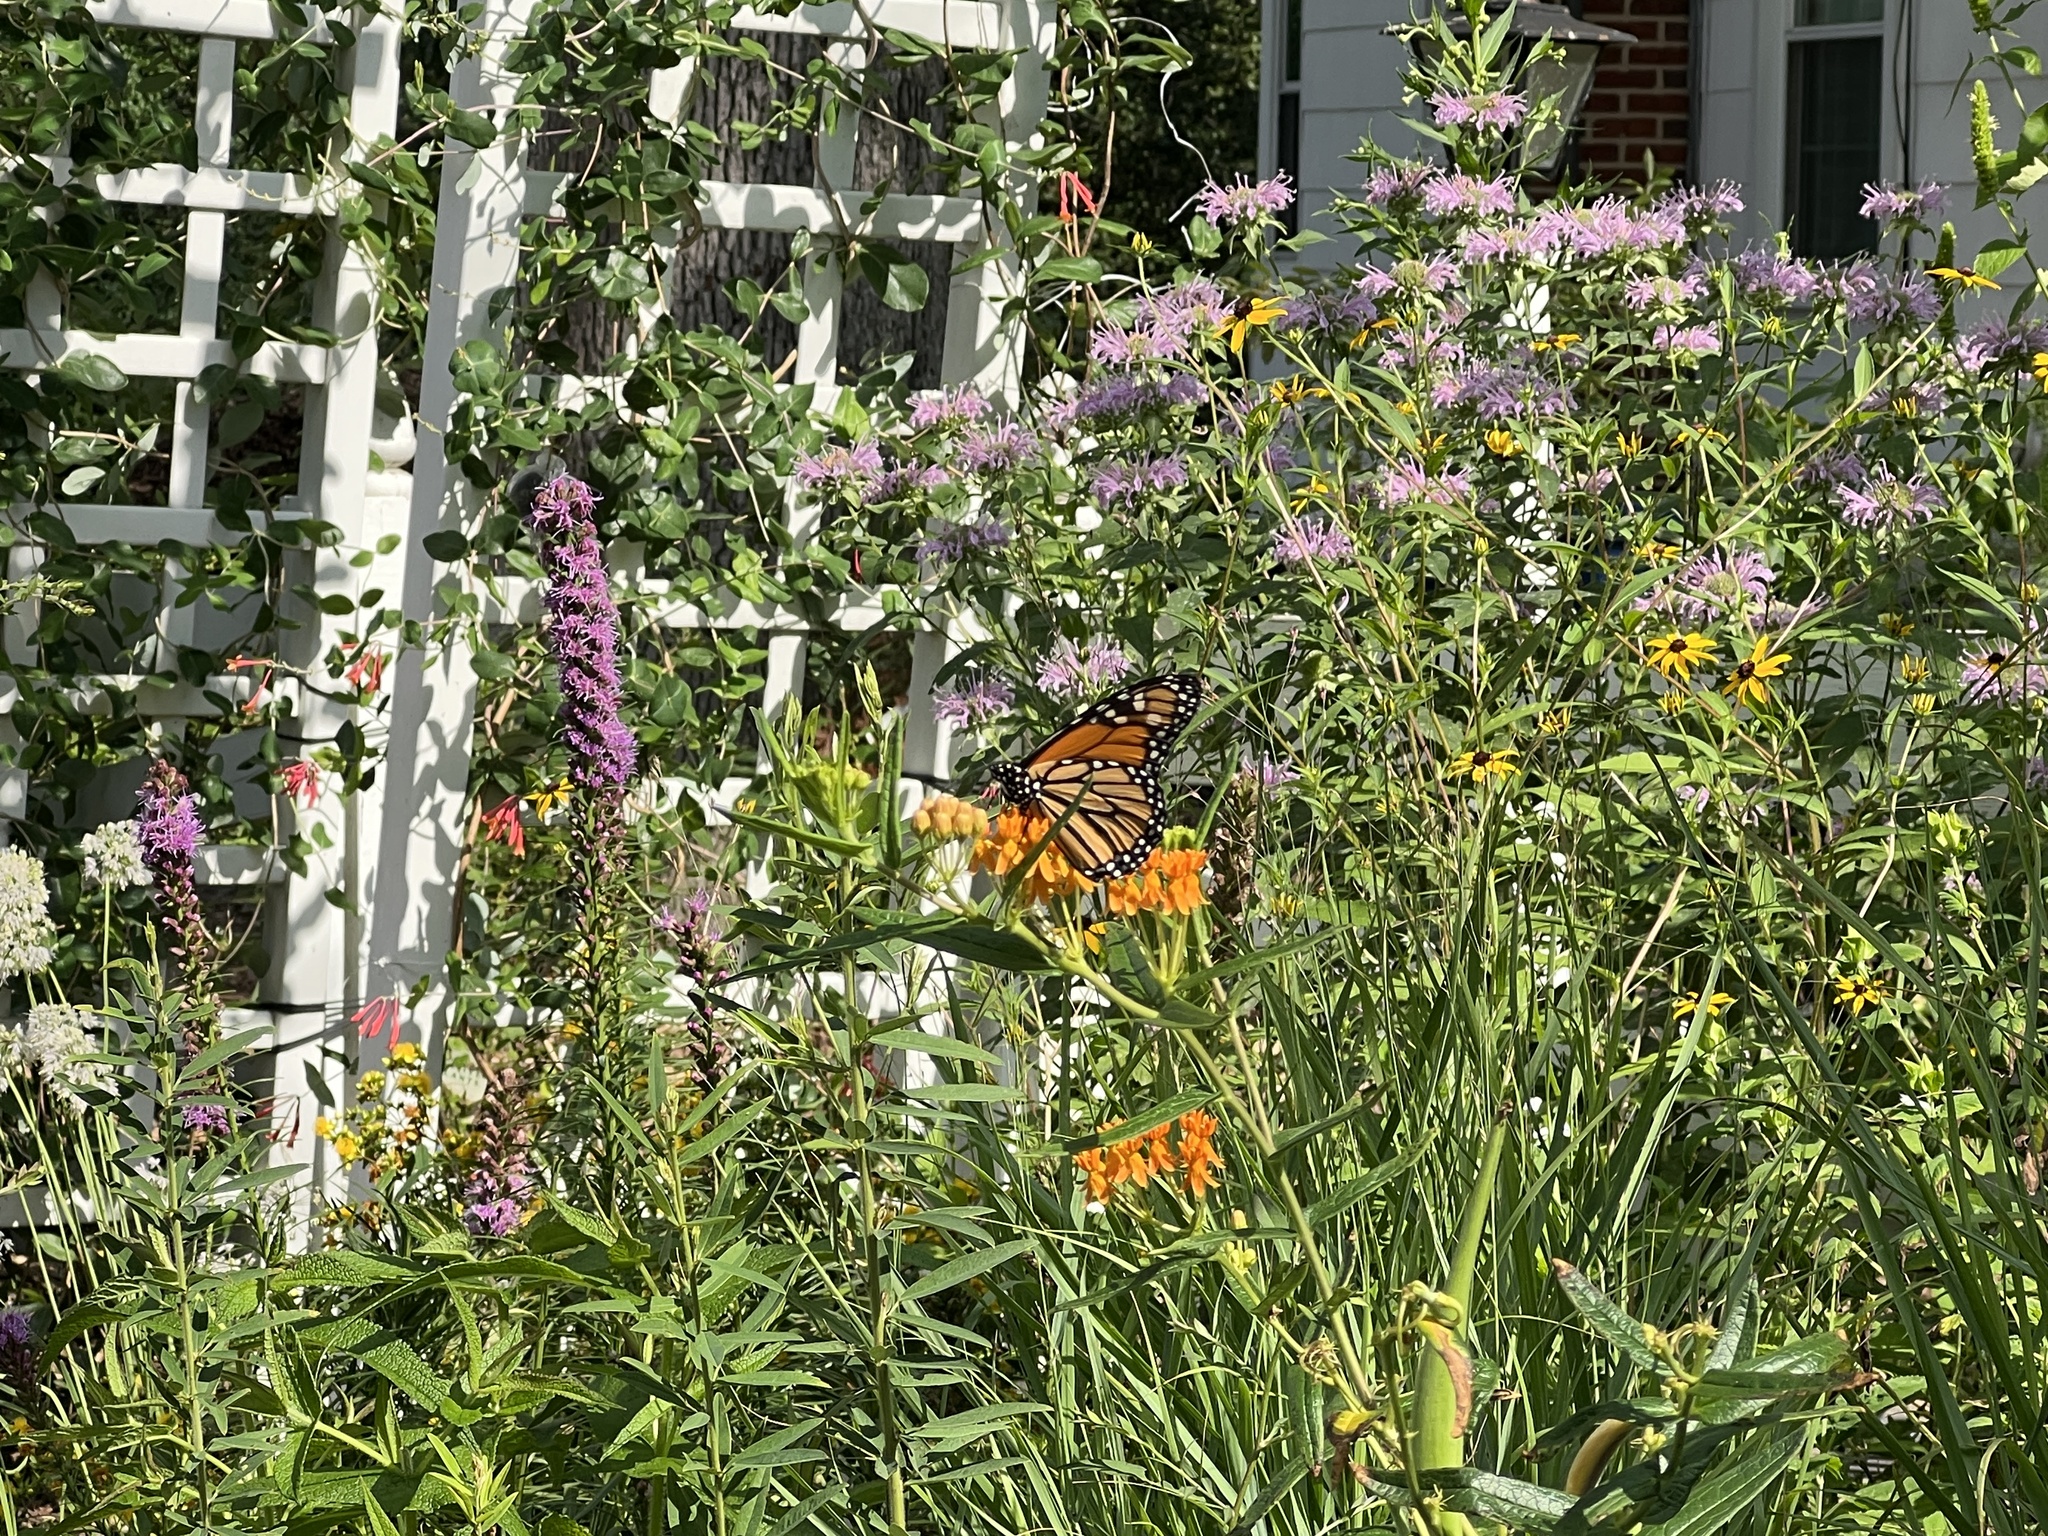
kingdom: Animalia
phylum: Arthropoda
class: Insecta
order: Lepidoptera
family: Nymphalidae
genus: Danaus
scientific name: Danaus plexippus
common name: Monarch
